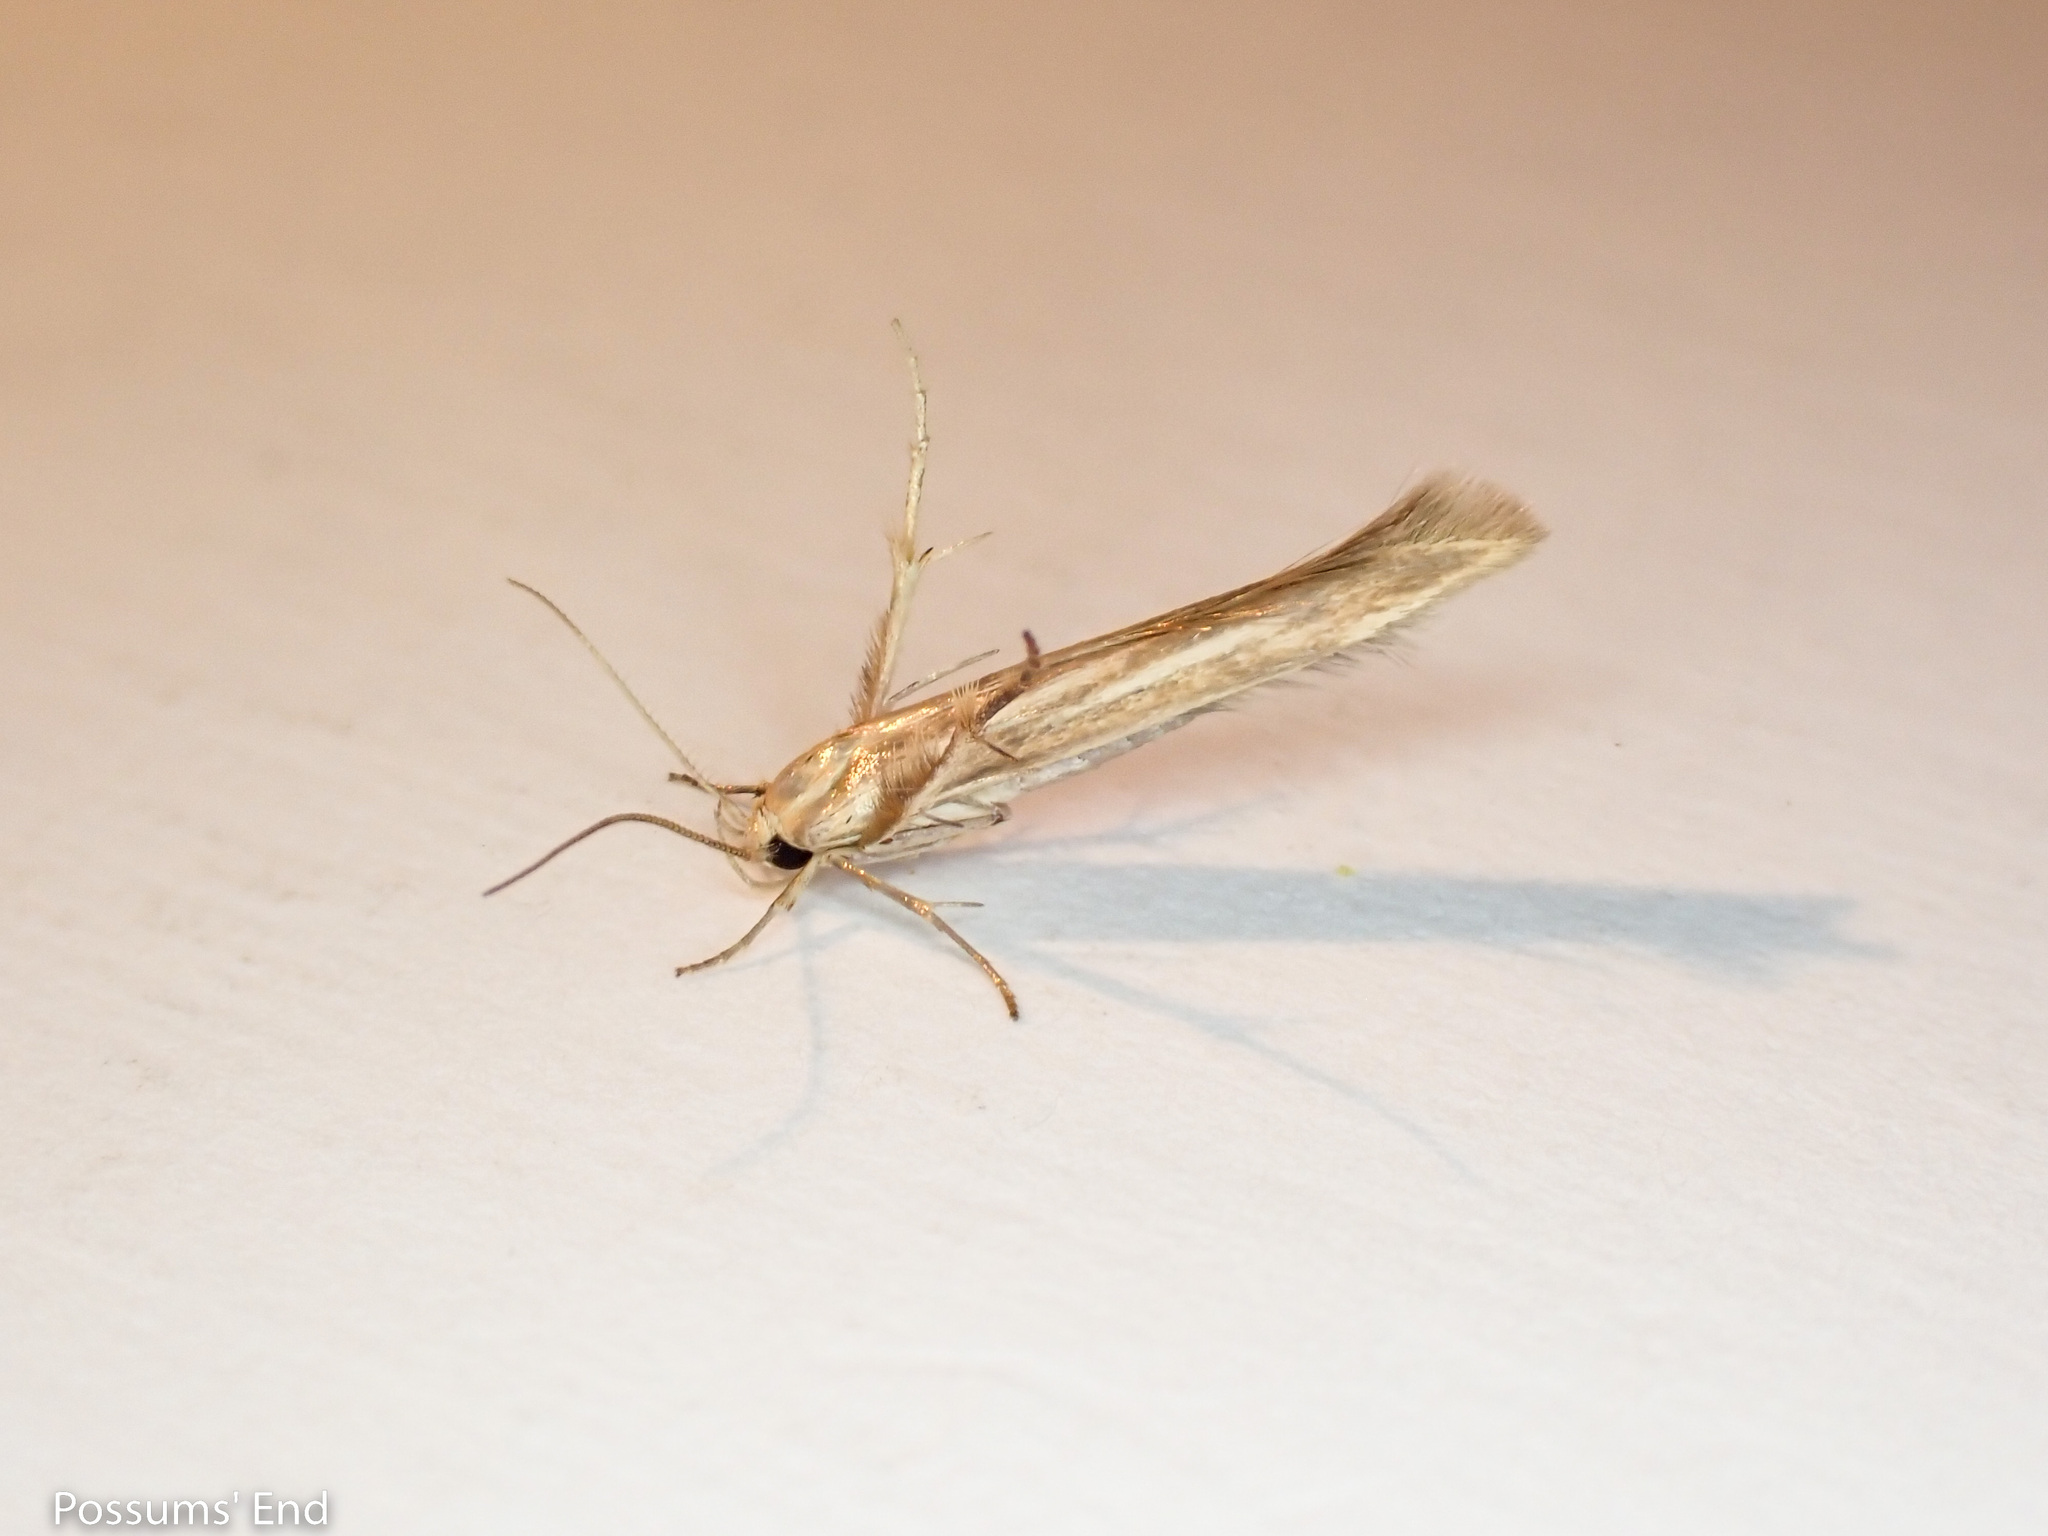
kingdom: Animalia
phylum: Arthropoda
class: Insecta
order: Lepidoptera
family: Stathmopodidae
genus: Stathmopoda
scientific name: Stathmopoda aposema
